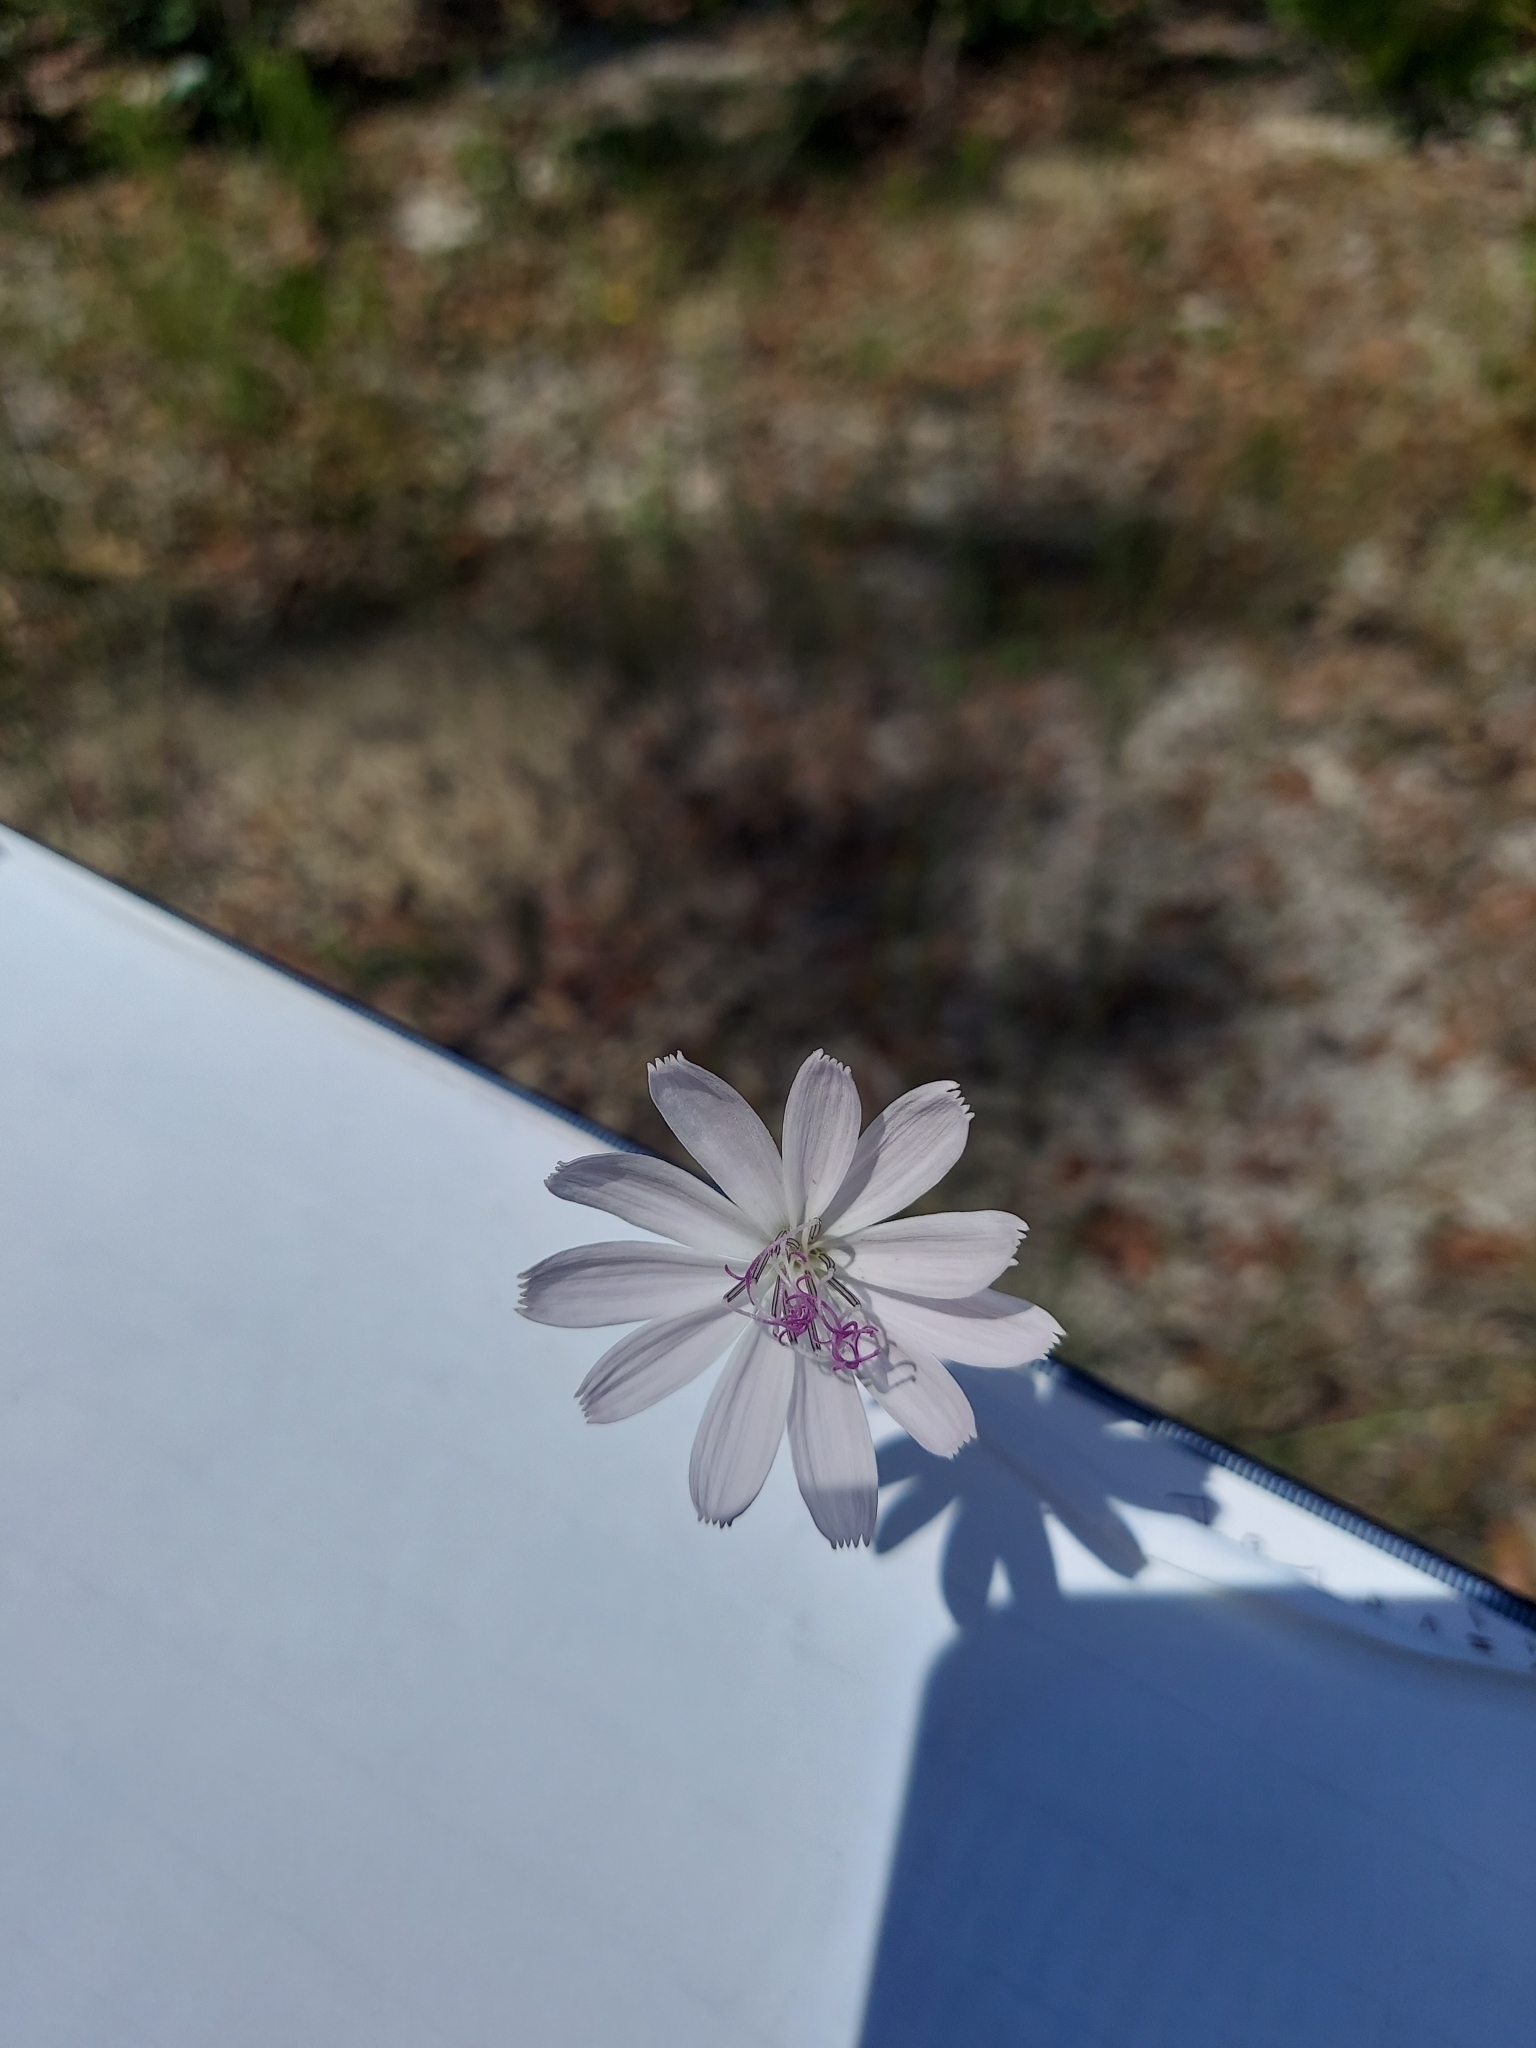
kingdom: Plantae
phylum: Tracheophyta
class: Magnoliopsida
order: Asterales
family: Asteraceae
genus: Lygodesmia
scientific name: Lygodesmia aphylla
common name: Rose-rush
